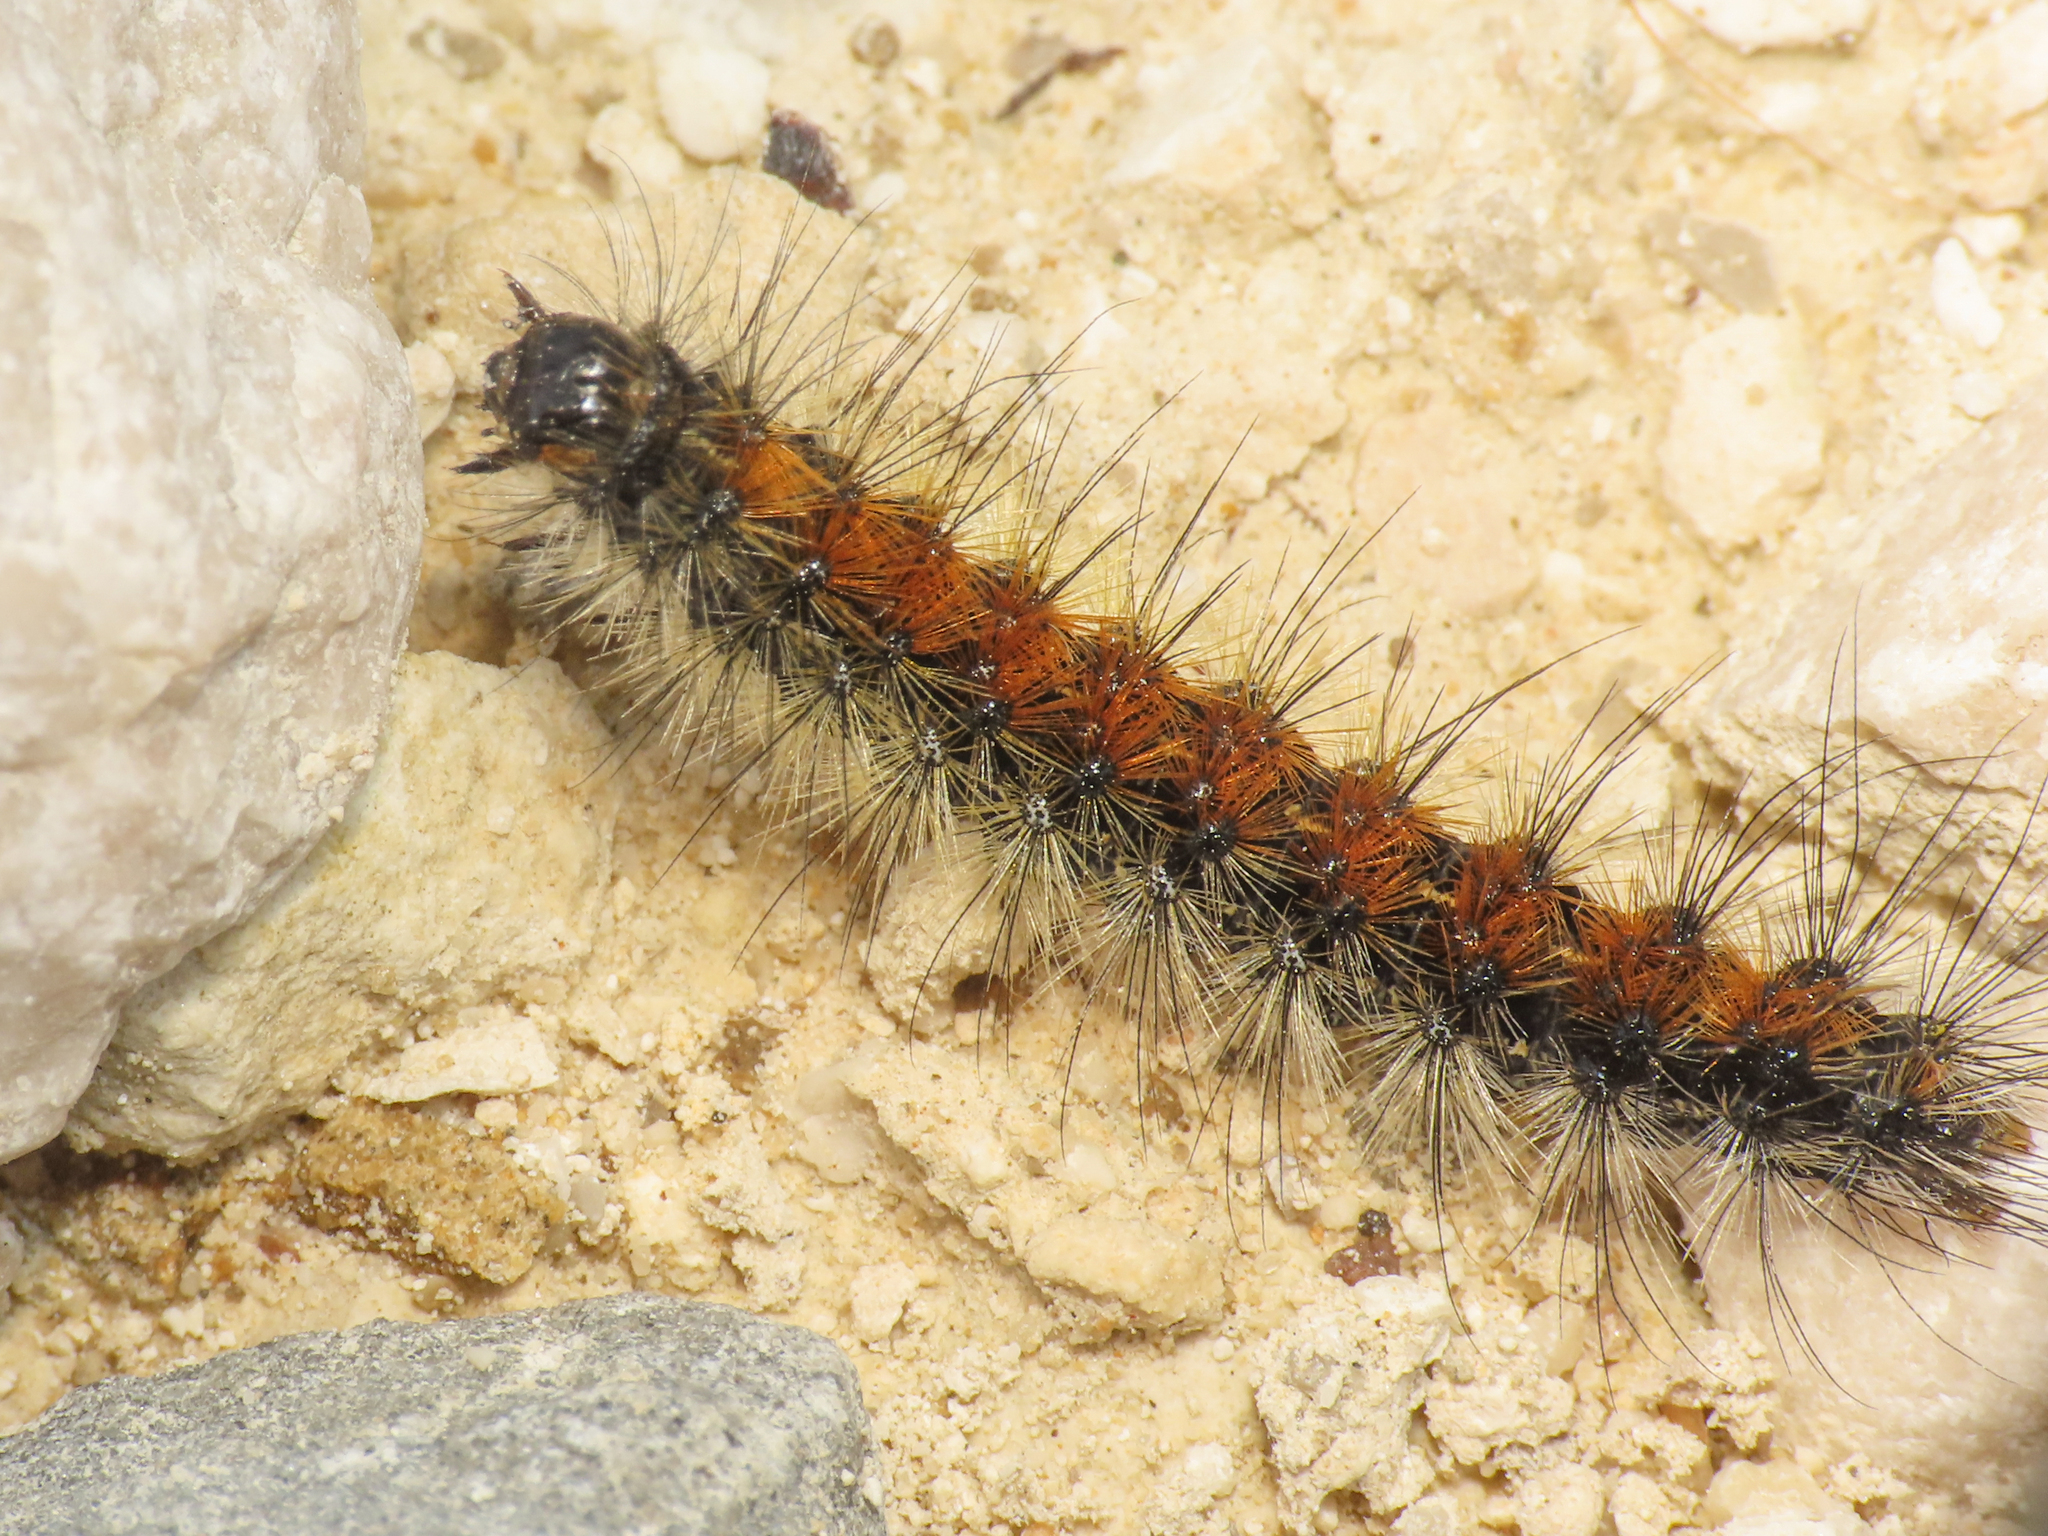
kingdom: Animalia
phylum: Arthropoda
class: Insecta
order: Lepidoptera
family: Erebidae
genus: Ocnogyna
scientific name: Ocnogyna boeticum
